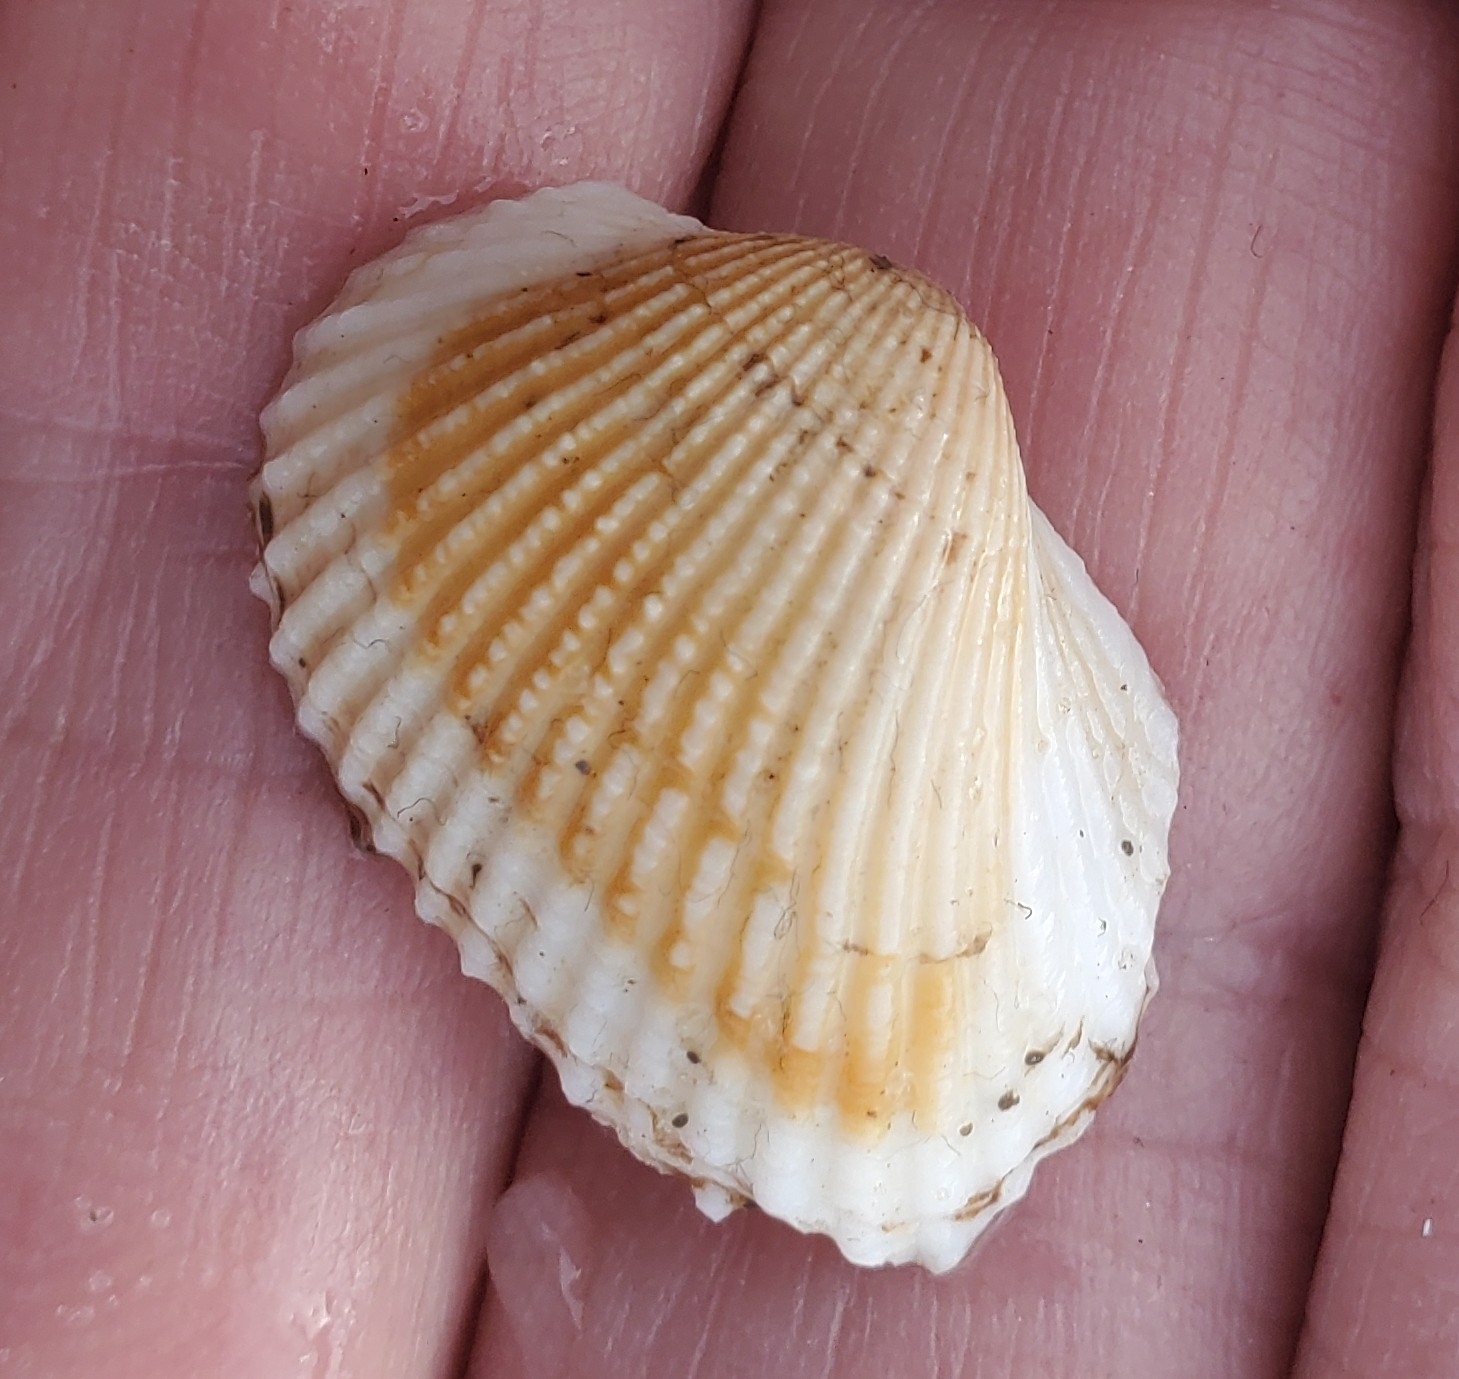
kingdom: Animalia
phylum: Mollusca
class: Bivalvia
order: Arcida
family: Arcidae
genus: Anadara
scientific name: Anadara transversa
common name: Transverse ark
